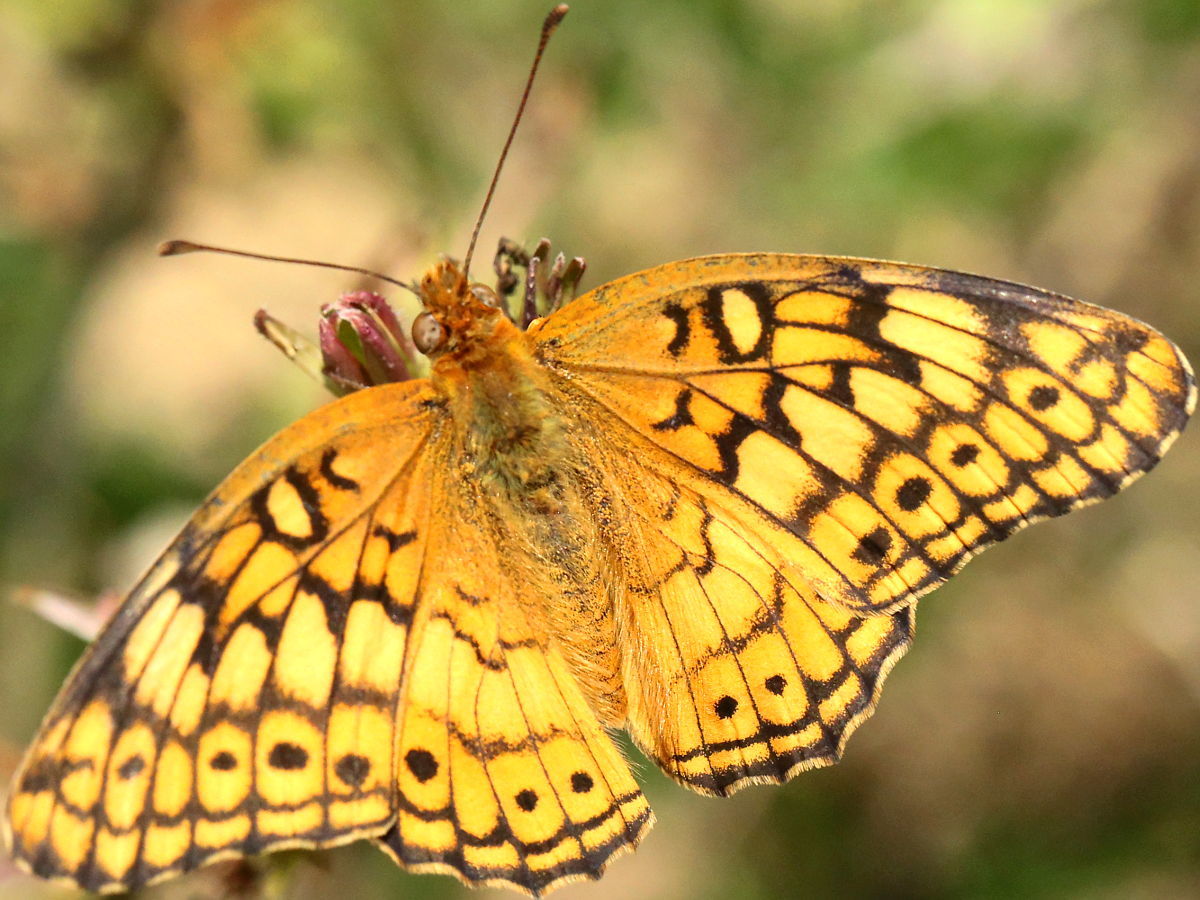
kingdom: Animalia
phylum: Arthropoda
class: Insecta
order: Lepidoptera
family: Nymphalidae
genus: Euptoieta
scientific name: Euptoieta claudia
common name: Variegated fritillary
